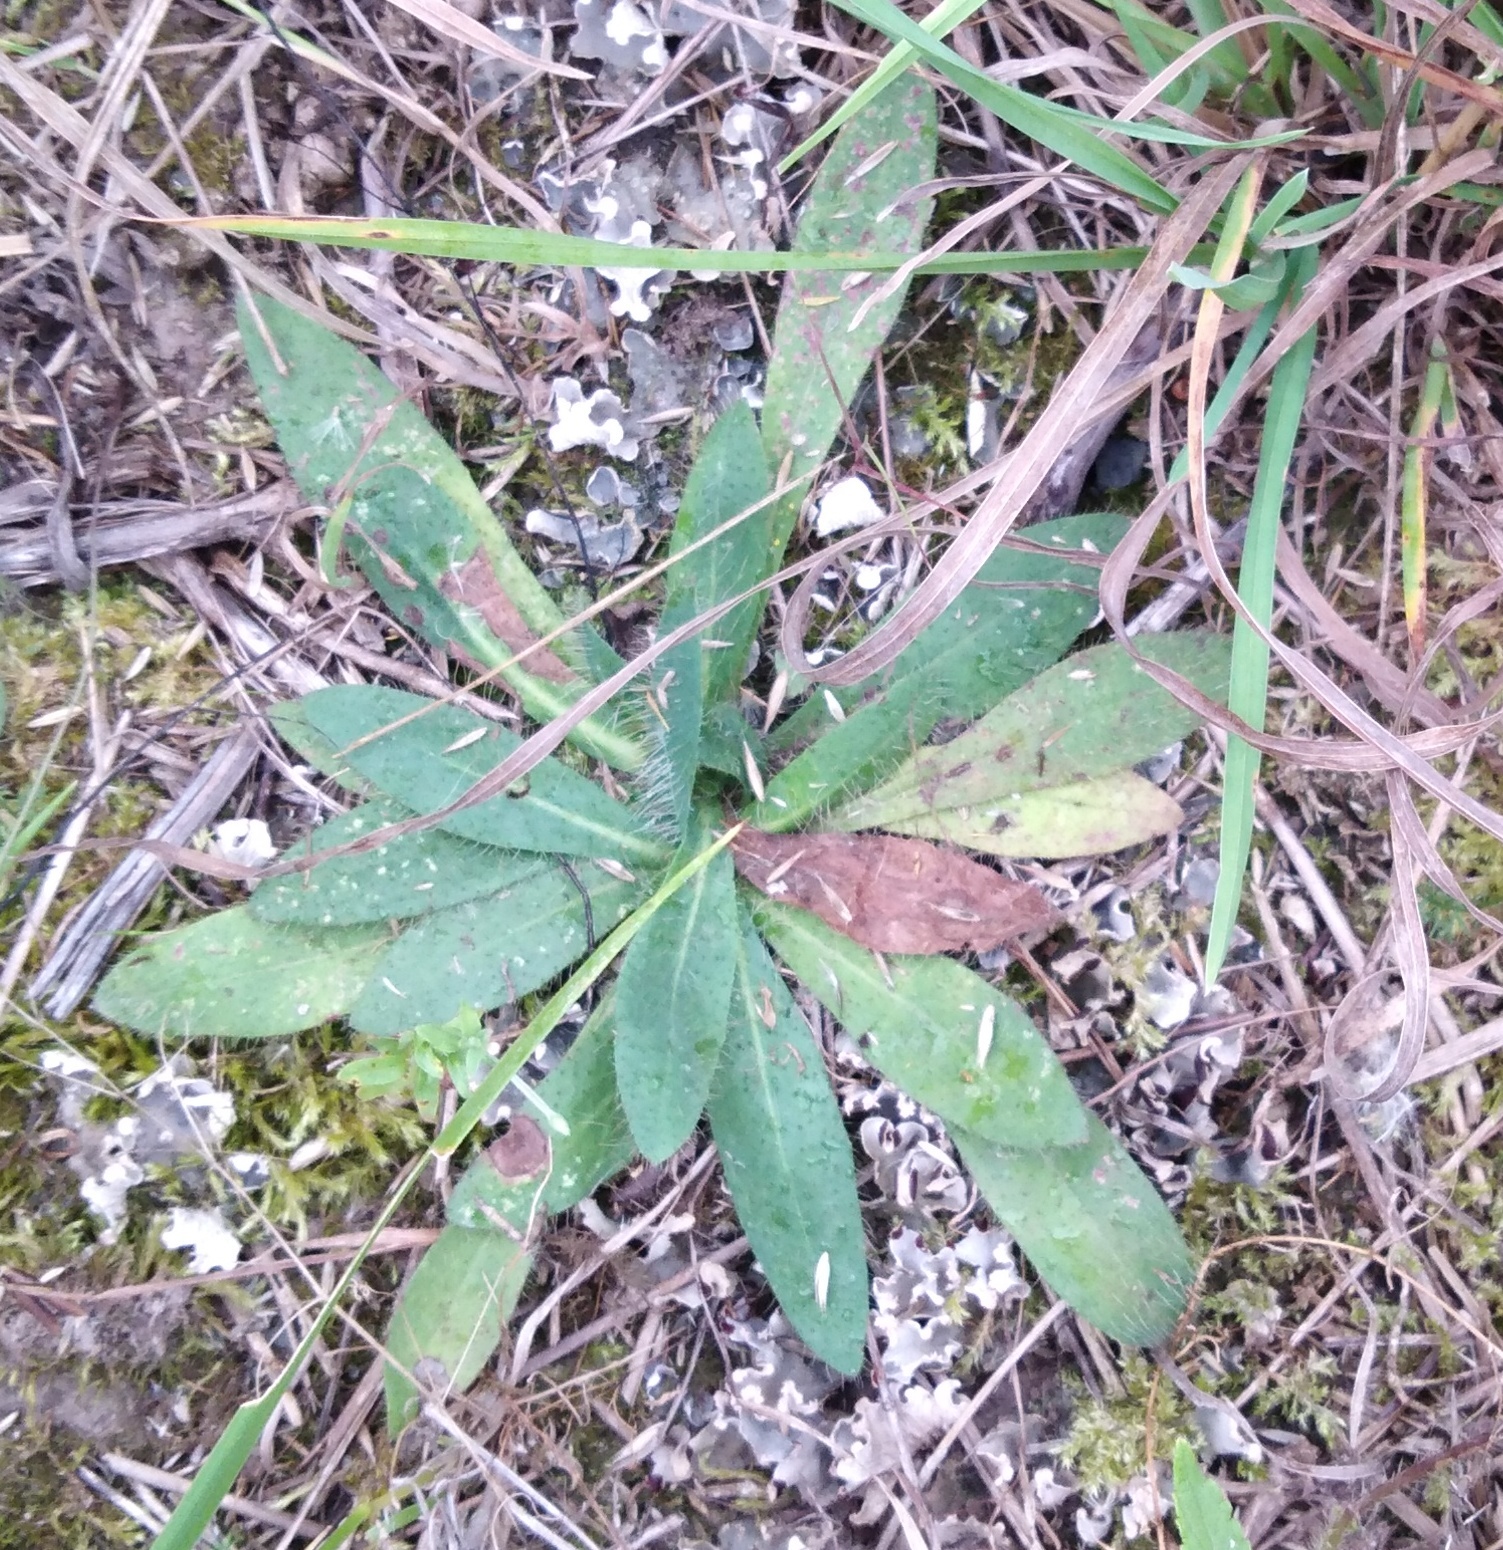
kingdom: Plantae
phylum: Tracheophyta
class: Magnoliopsida
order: Asterales
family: Asteraceae
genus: Pilosella
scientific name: Pilosella officinarum
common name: Mouse-ear hawkweed
